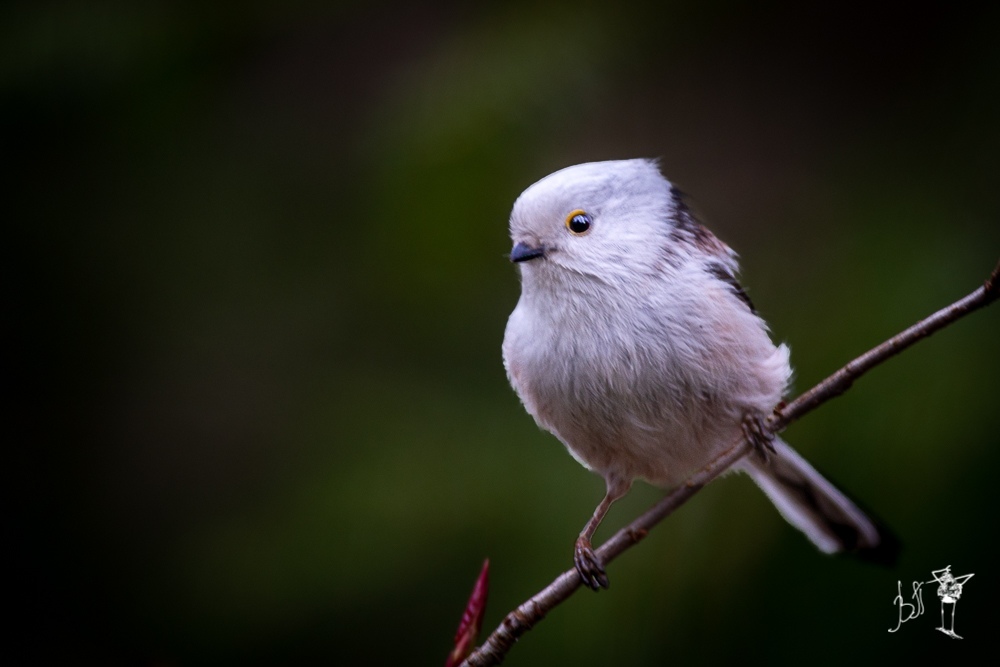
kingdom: Animalia
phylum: Chordata
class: Aves
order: Passeriformes
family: Aegithalidae
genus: Aegithalos
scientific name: Aegithalos caudatus
